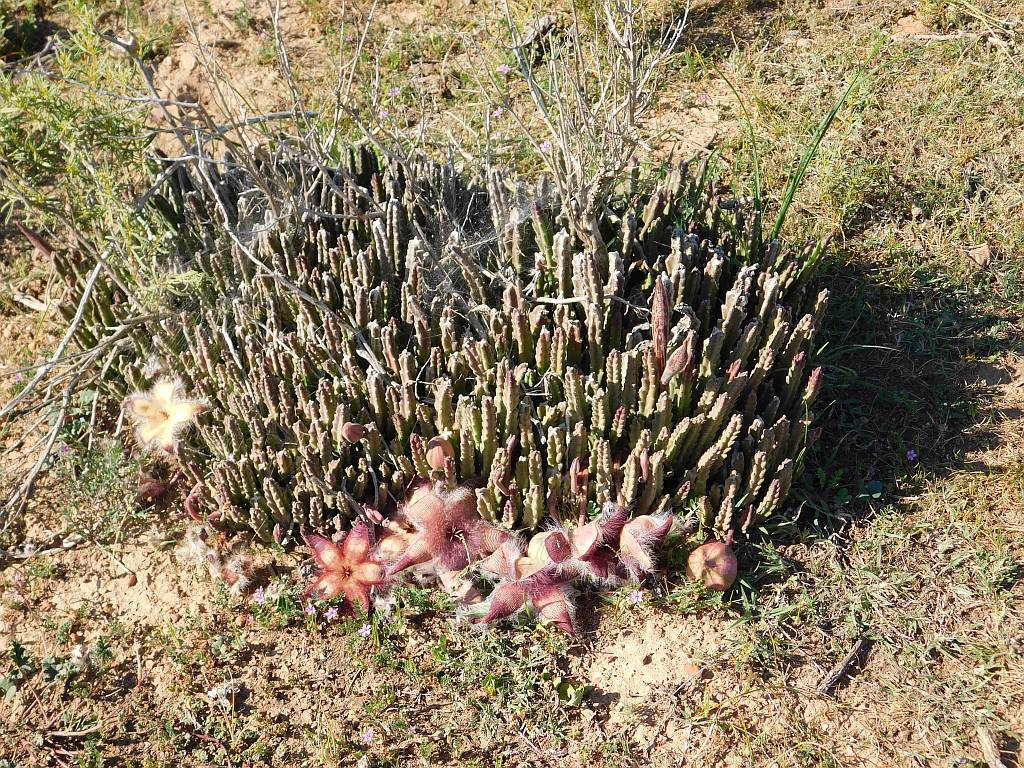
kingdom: Plantae
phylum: Tracheophyta
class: Magnoliopsida
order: Gentianales
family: Apocynaceae
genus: Ceropegia
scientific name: Ceropegia pulvinata
